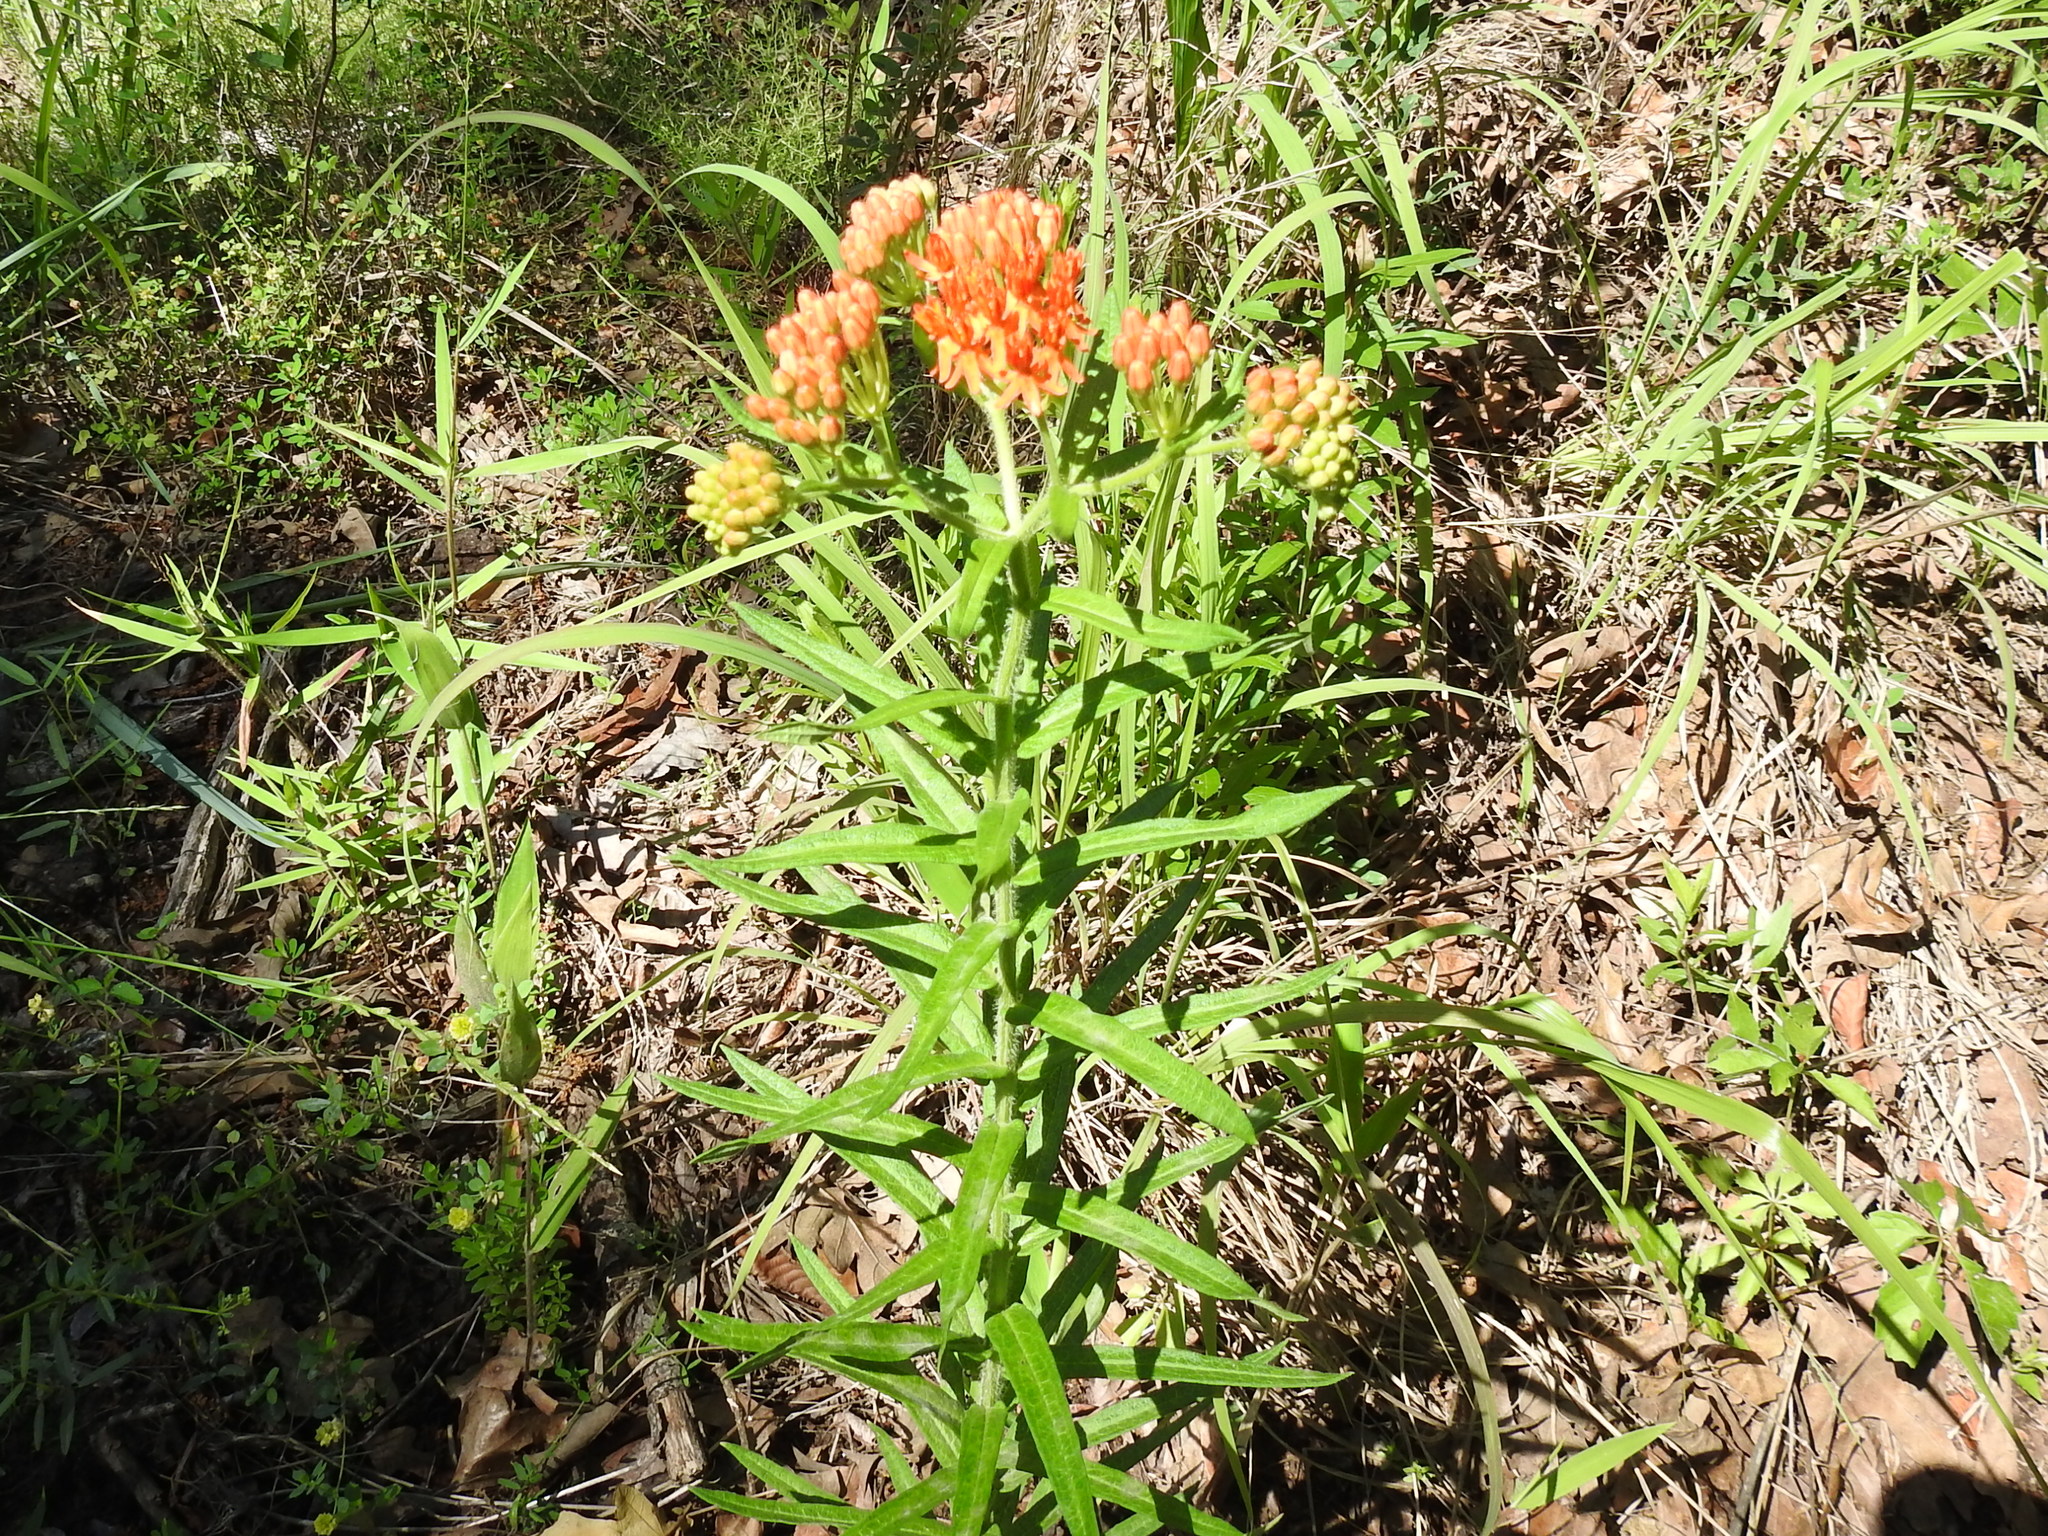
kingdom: Plantae
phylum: Tracheophyta
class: Magnoliopsida
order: Gentianales
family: Apocynaceae
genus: Asclepias
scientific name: Asclepias tuberosa
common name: Butterfly milkweed
